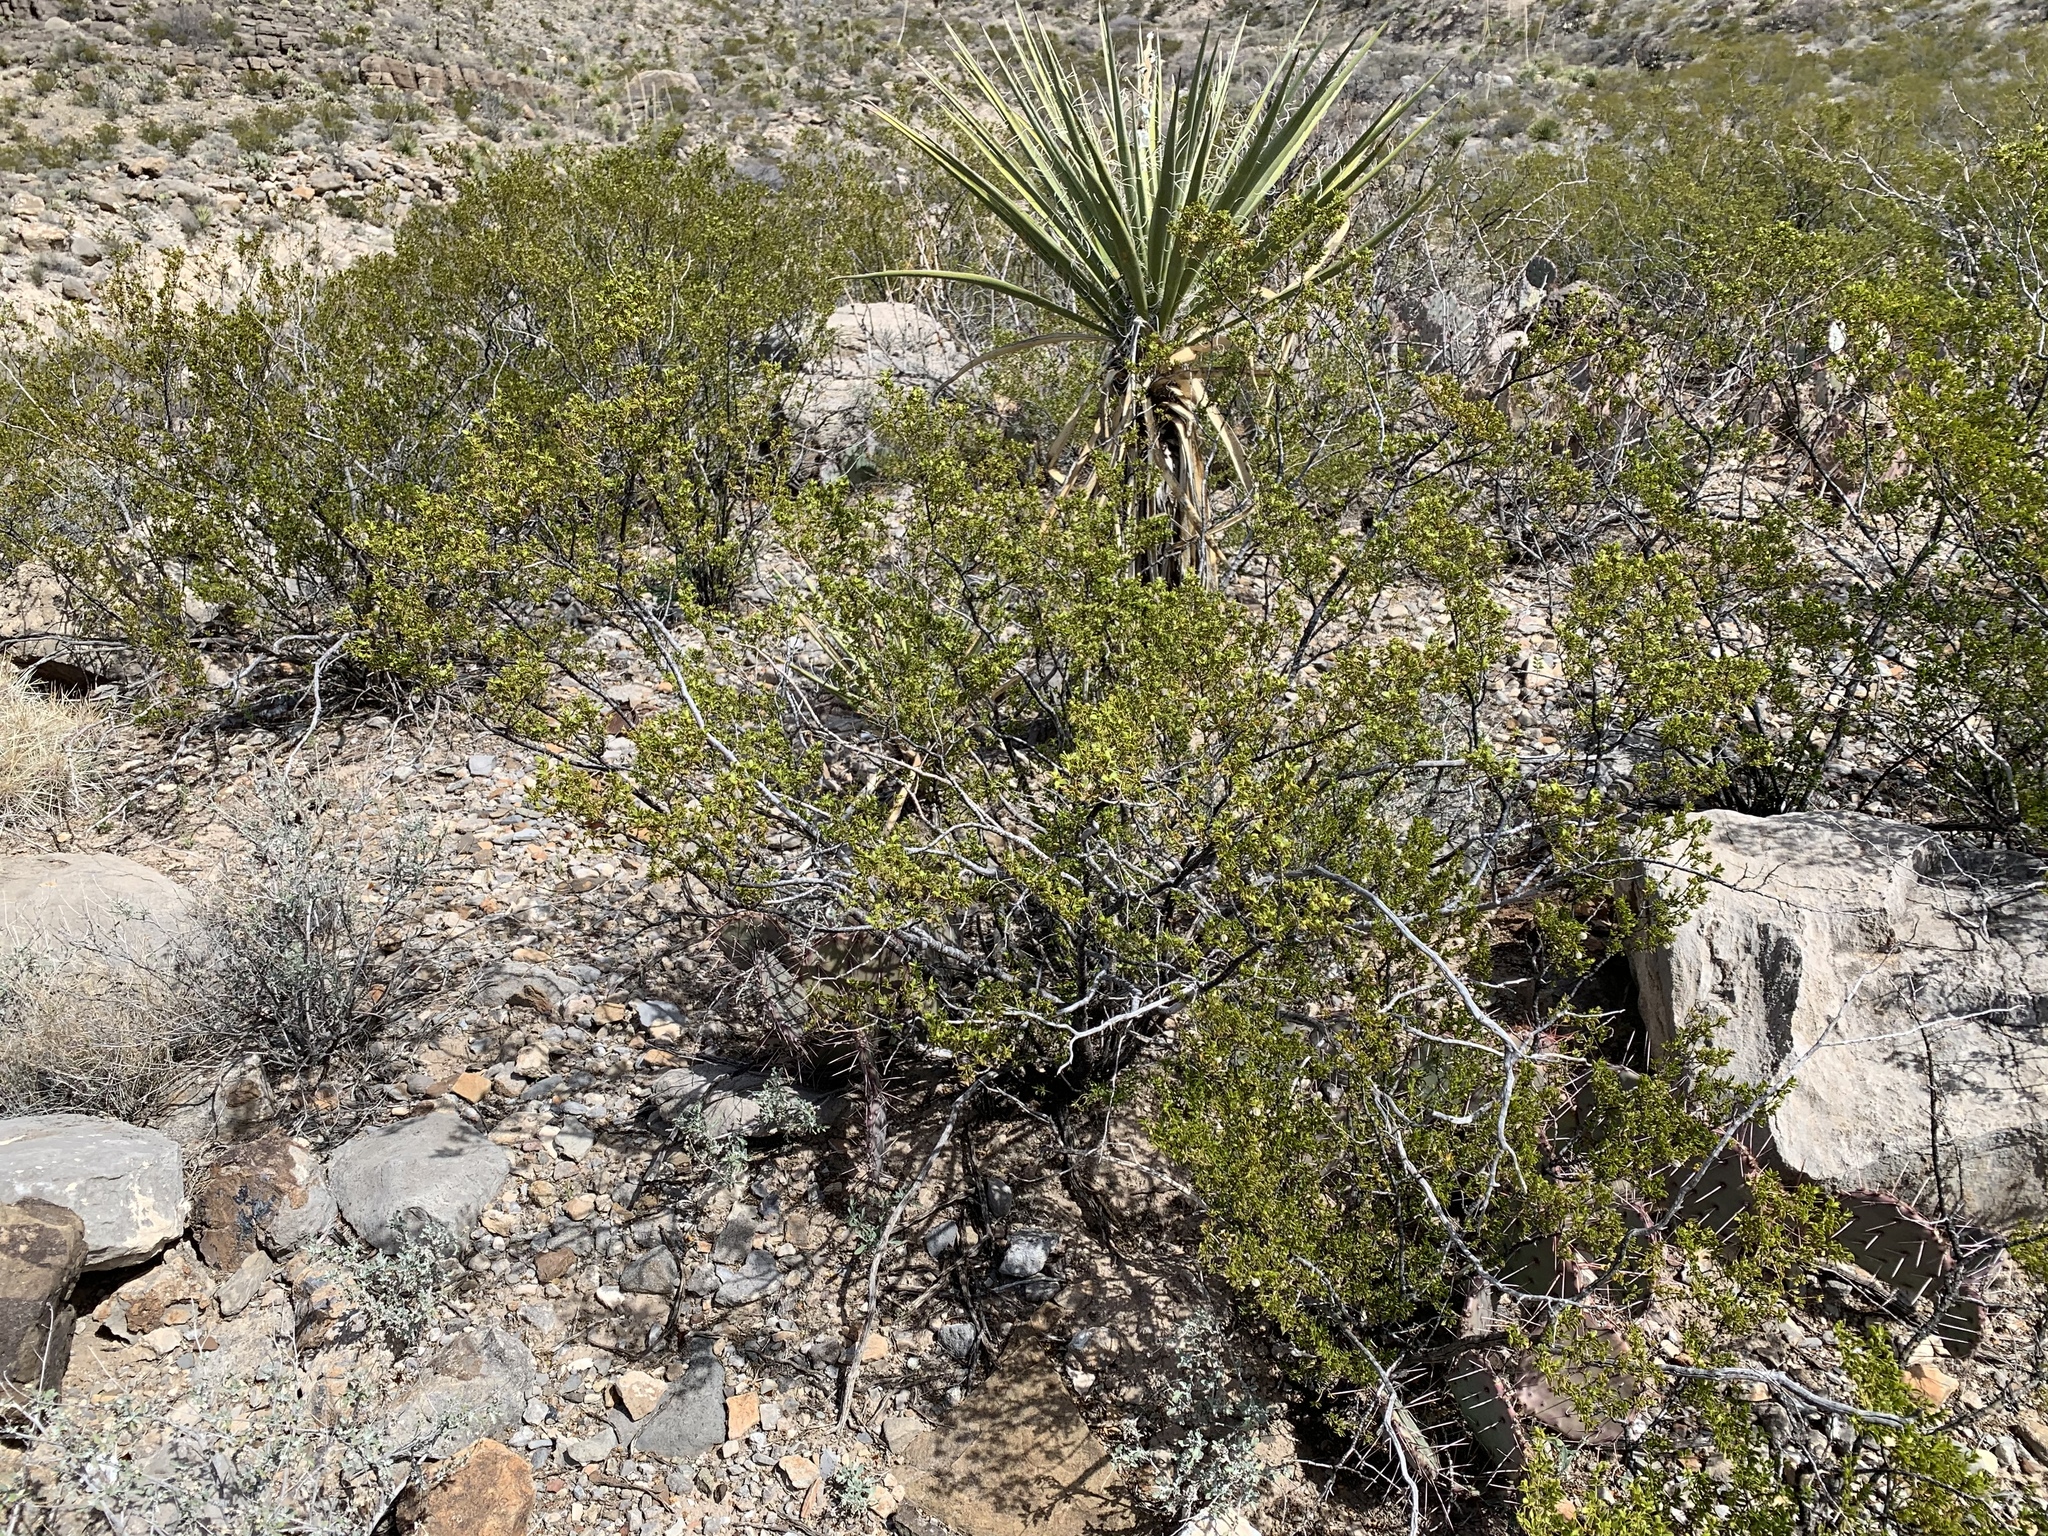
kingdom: Plantae
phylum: Tracheophyta
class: Magnoliopsida
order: Zygophyllales
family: Zygophyllaceae
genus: Larrea
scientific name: Larrea tridentata
